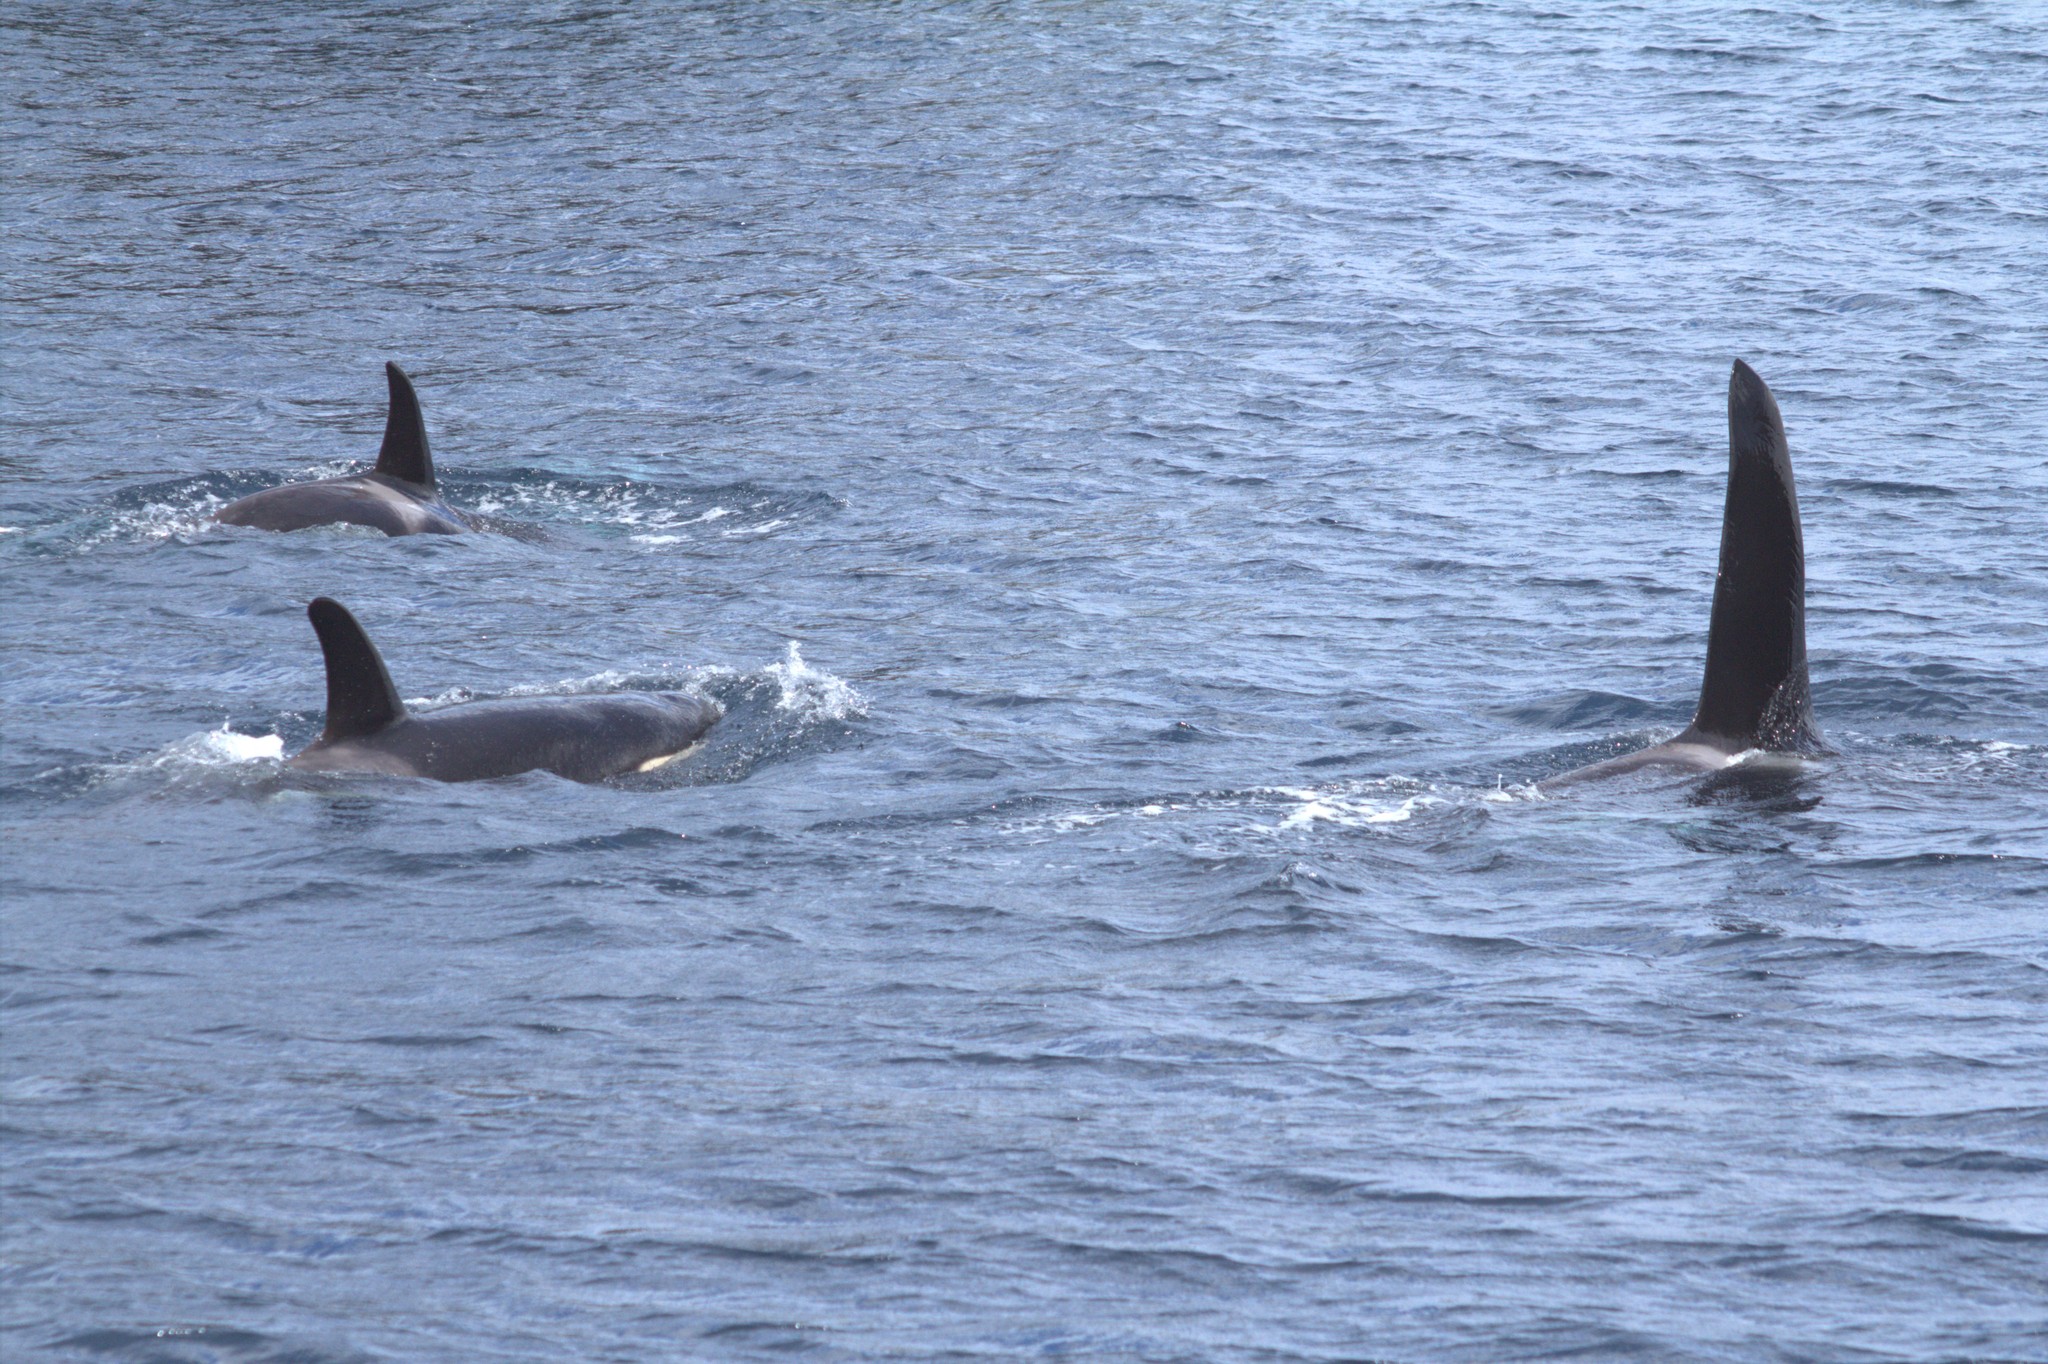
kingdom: Animalia
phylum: Chordata
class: Mammalia
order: Cetacea
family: Delphinidae
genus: Orcinus
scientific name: Orcinus orca
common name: Killer whale
